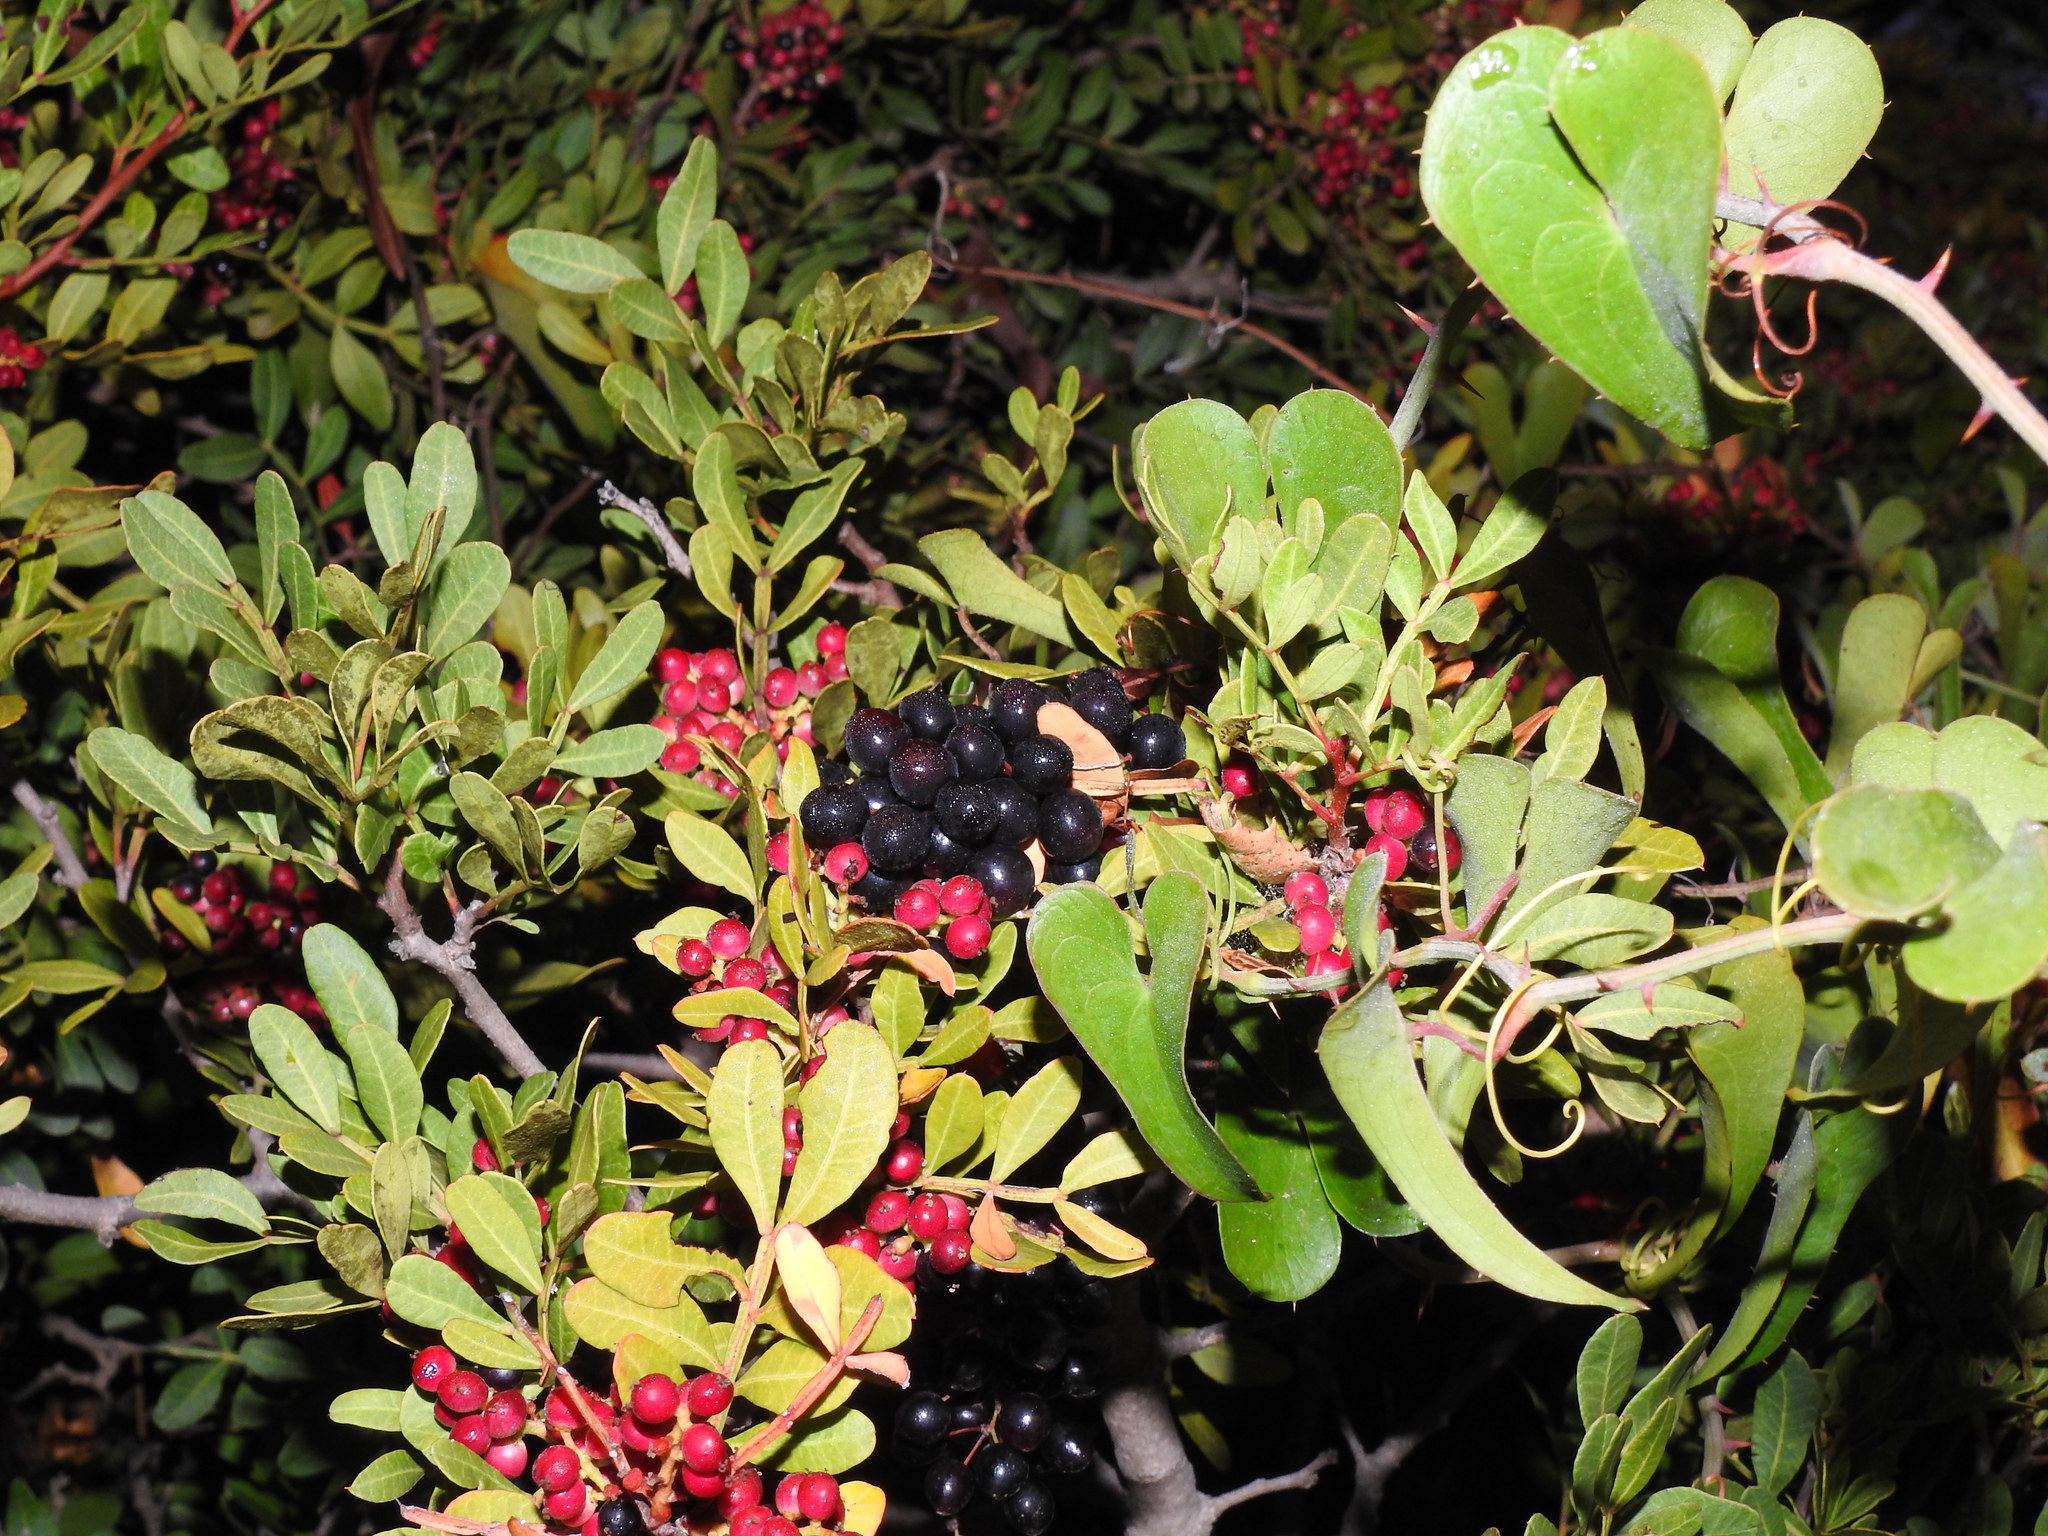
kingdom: Plantae
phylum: Tracheophyta
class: Liliopsida
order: Liliales
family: Smilacaceae
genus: Smilax
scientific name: Smilax aspera
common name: Common smilax
